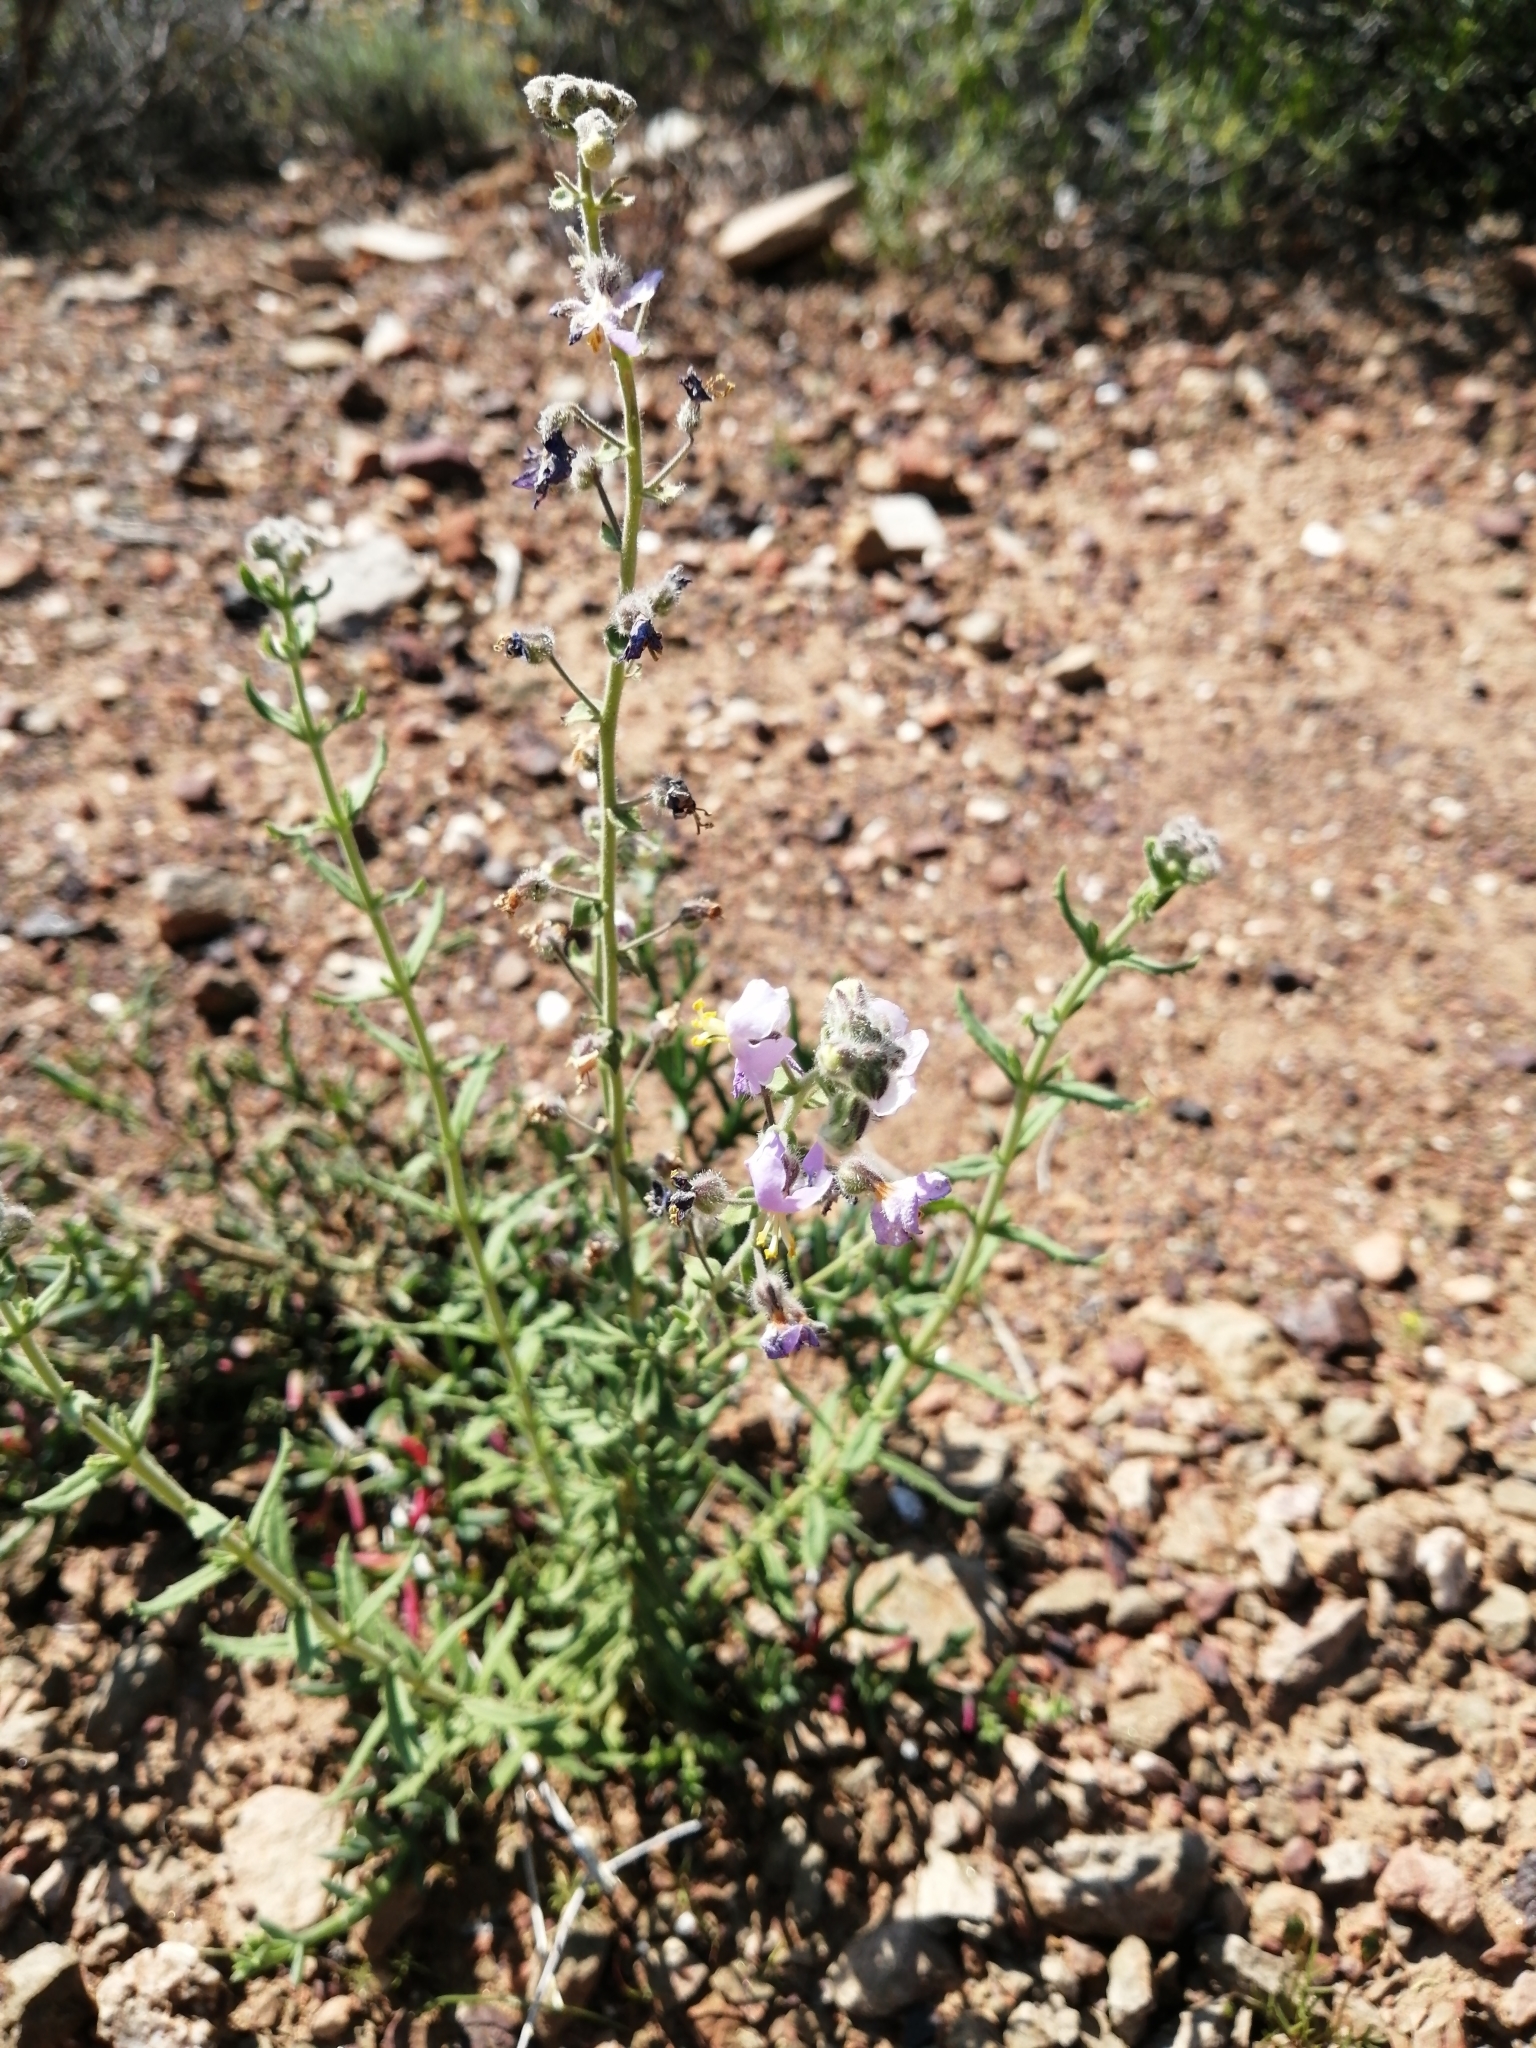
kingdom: Plantae
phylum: Tracheophyta
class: Magnoliopsida
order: Lamiales
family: Scrophulariaceae
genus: Chaenostoma
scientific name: Chaenostoma caeruleum
